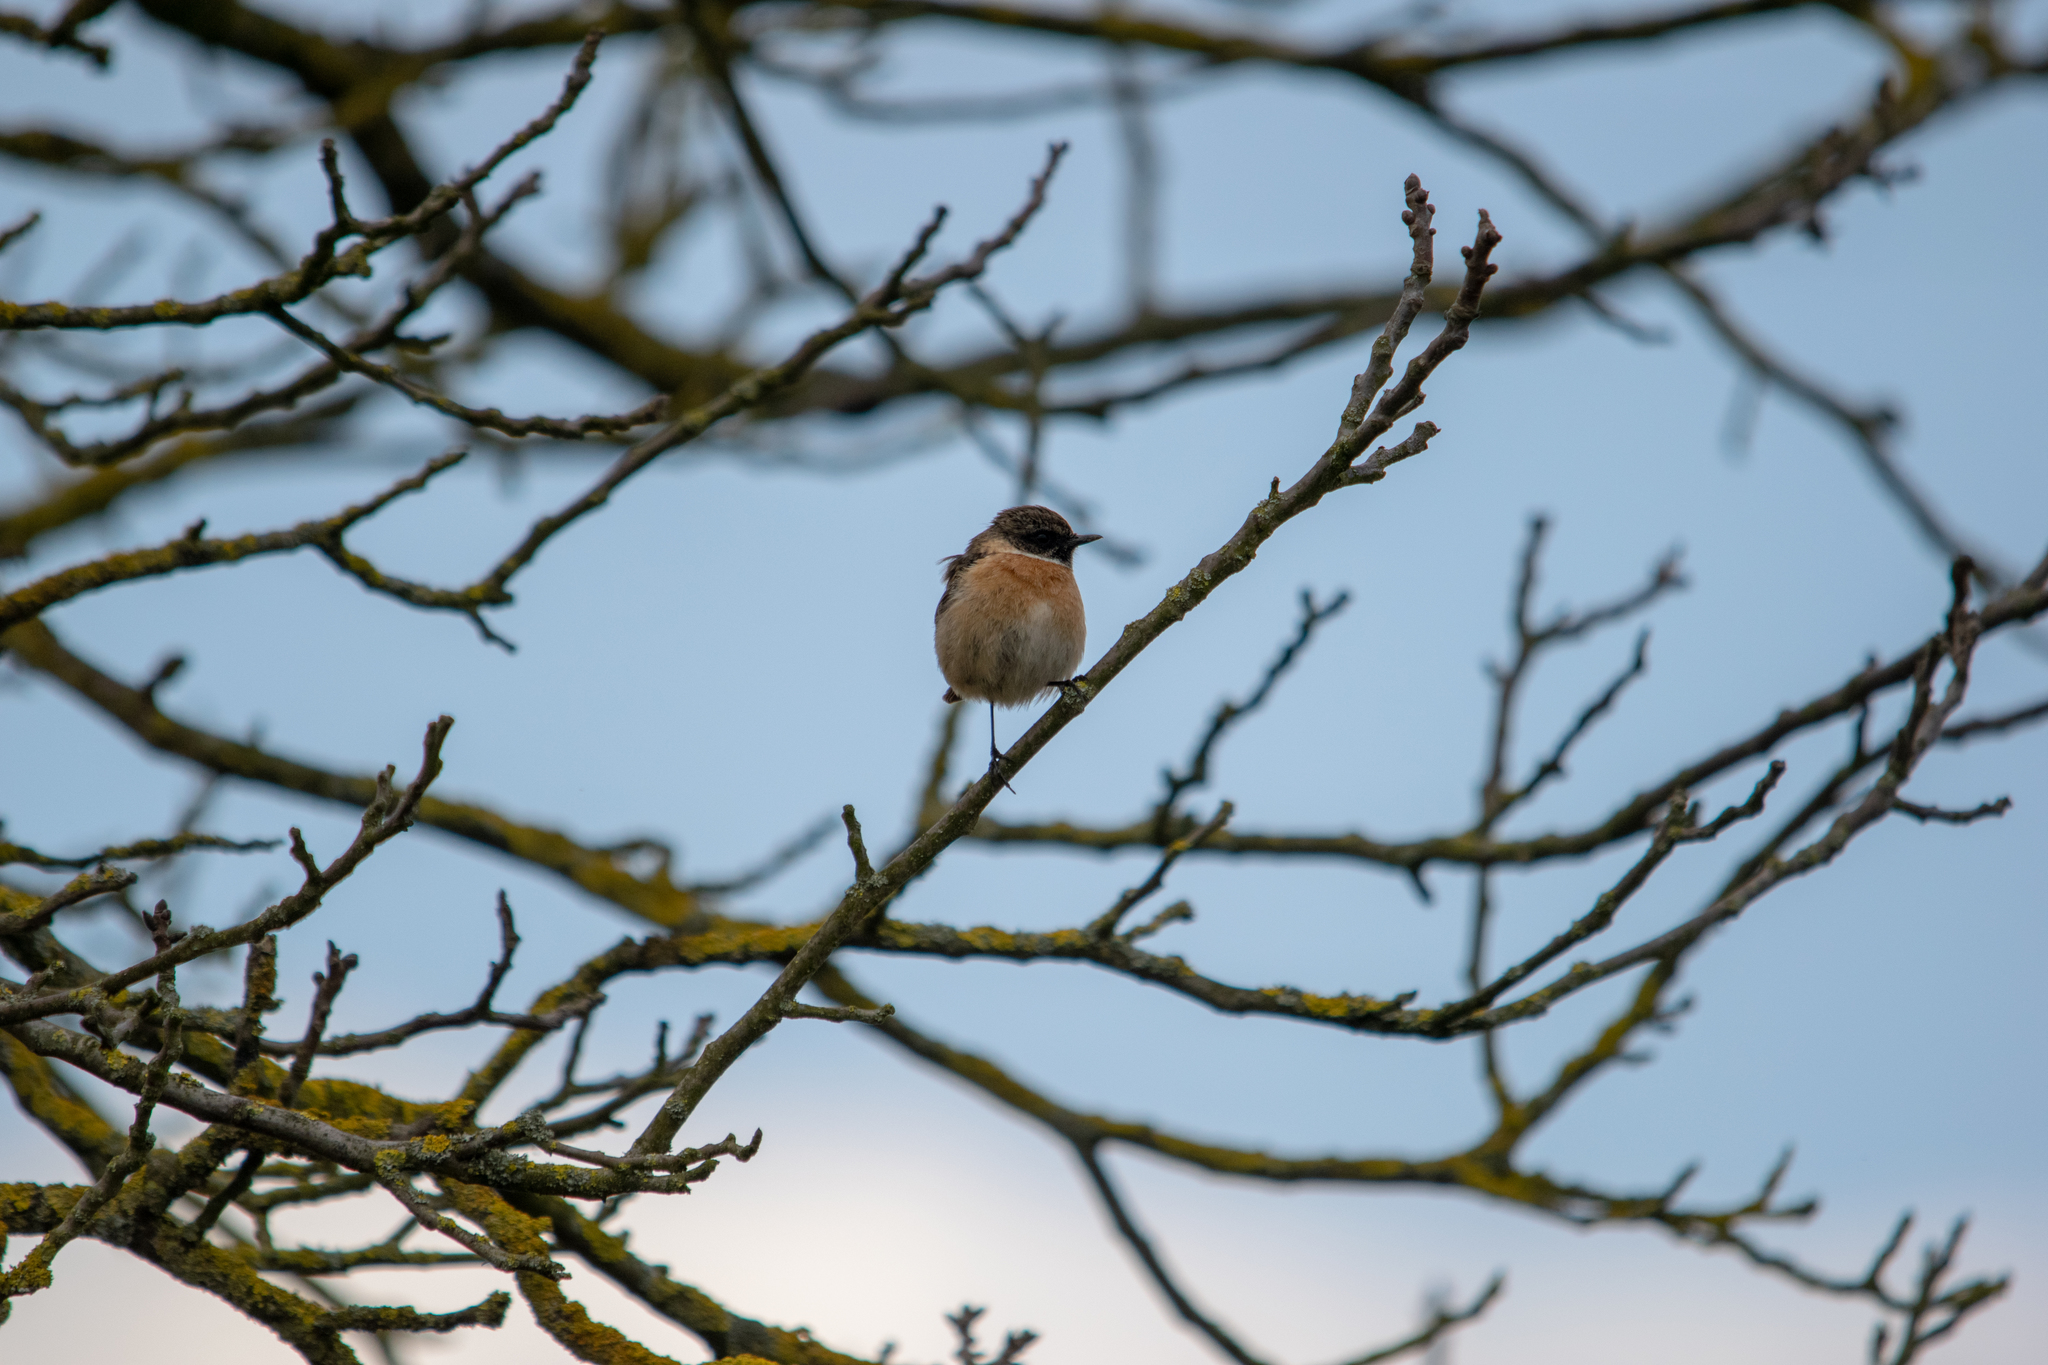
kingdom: Animalia
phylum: Chordata
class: Aves
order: Passeriformes
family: Muscicapidae
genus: Saxicola
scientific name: Saxicola rubicola
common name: European stonechat
